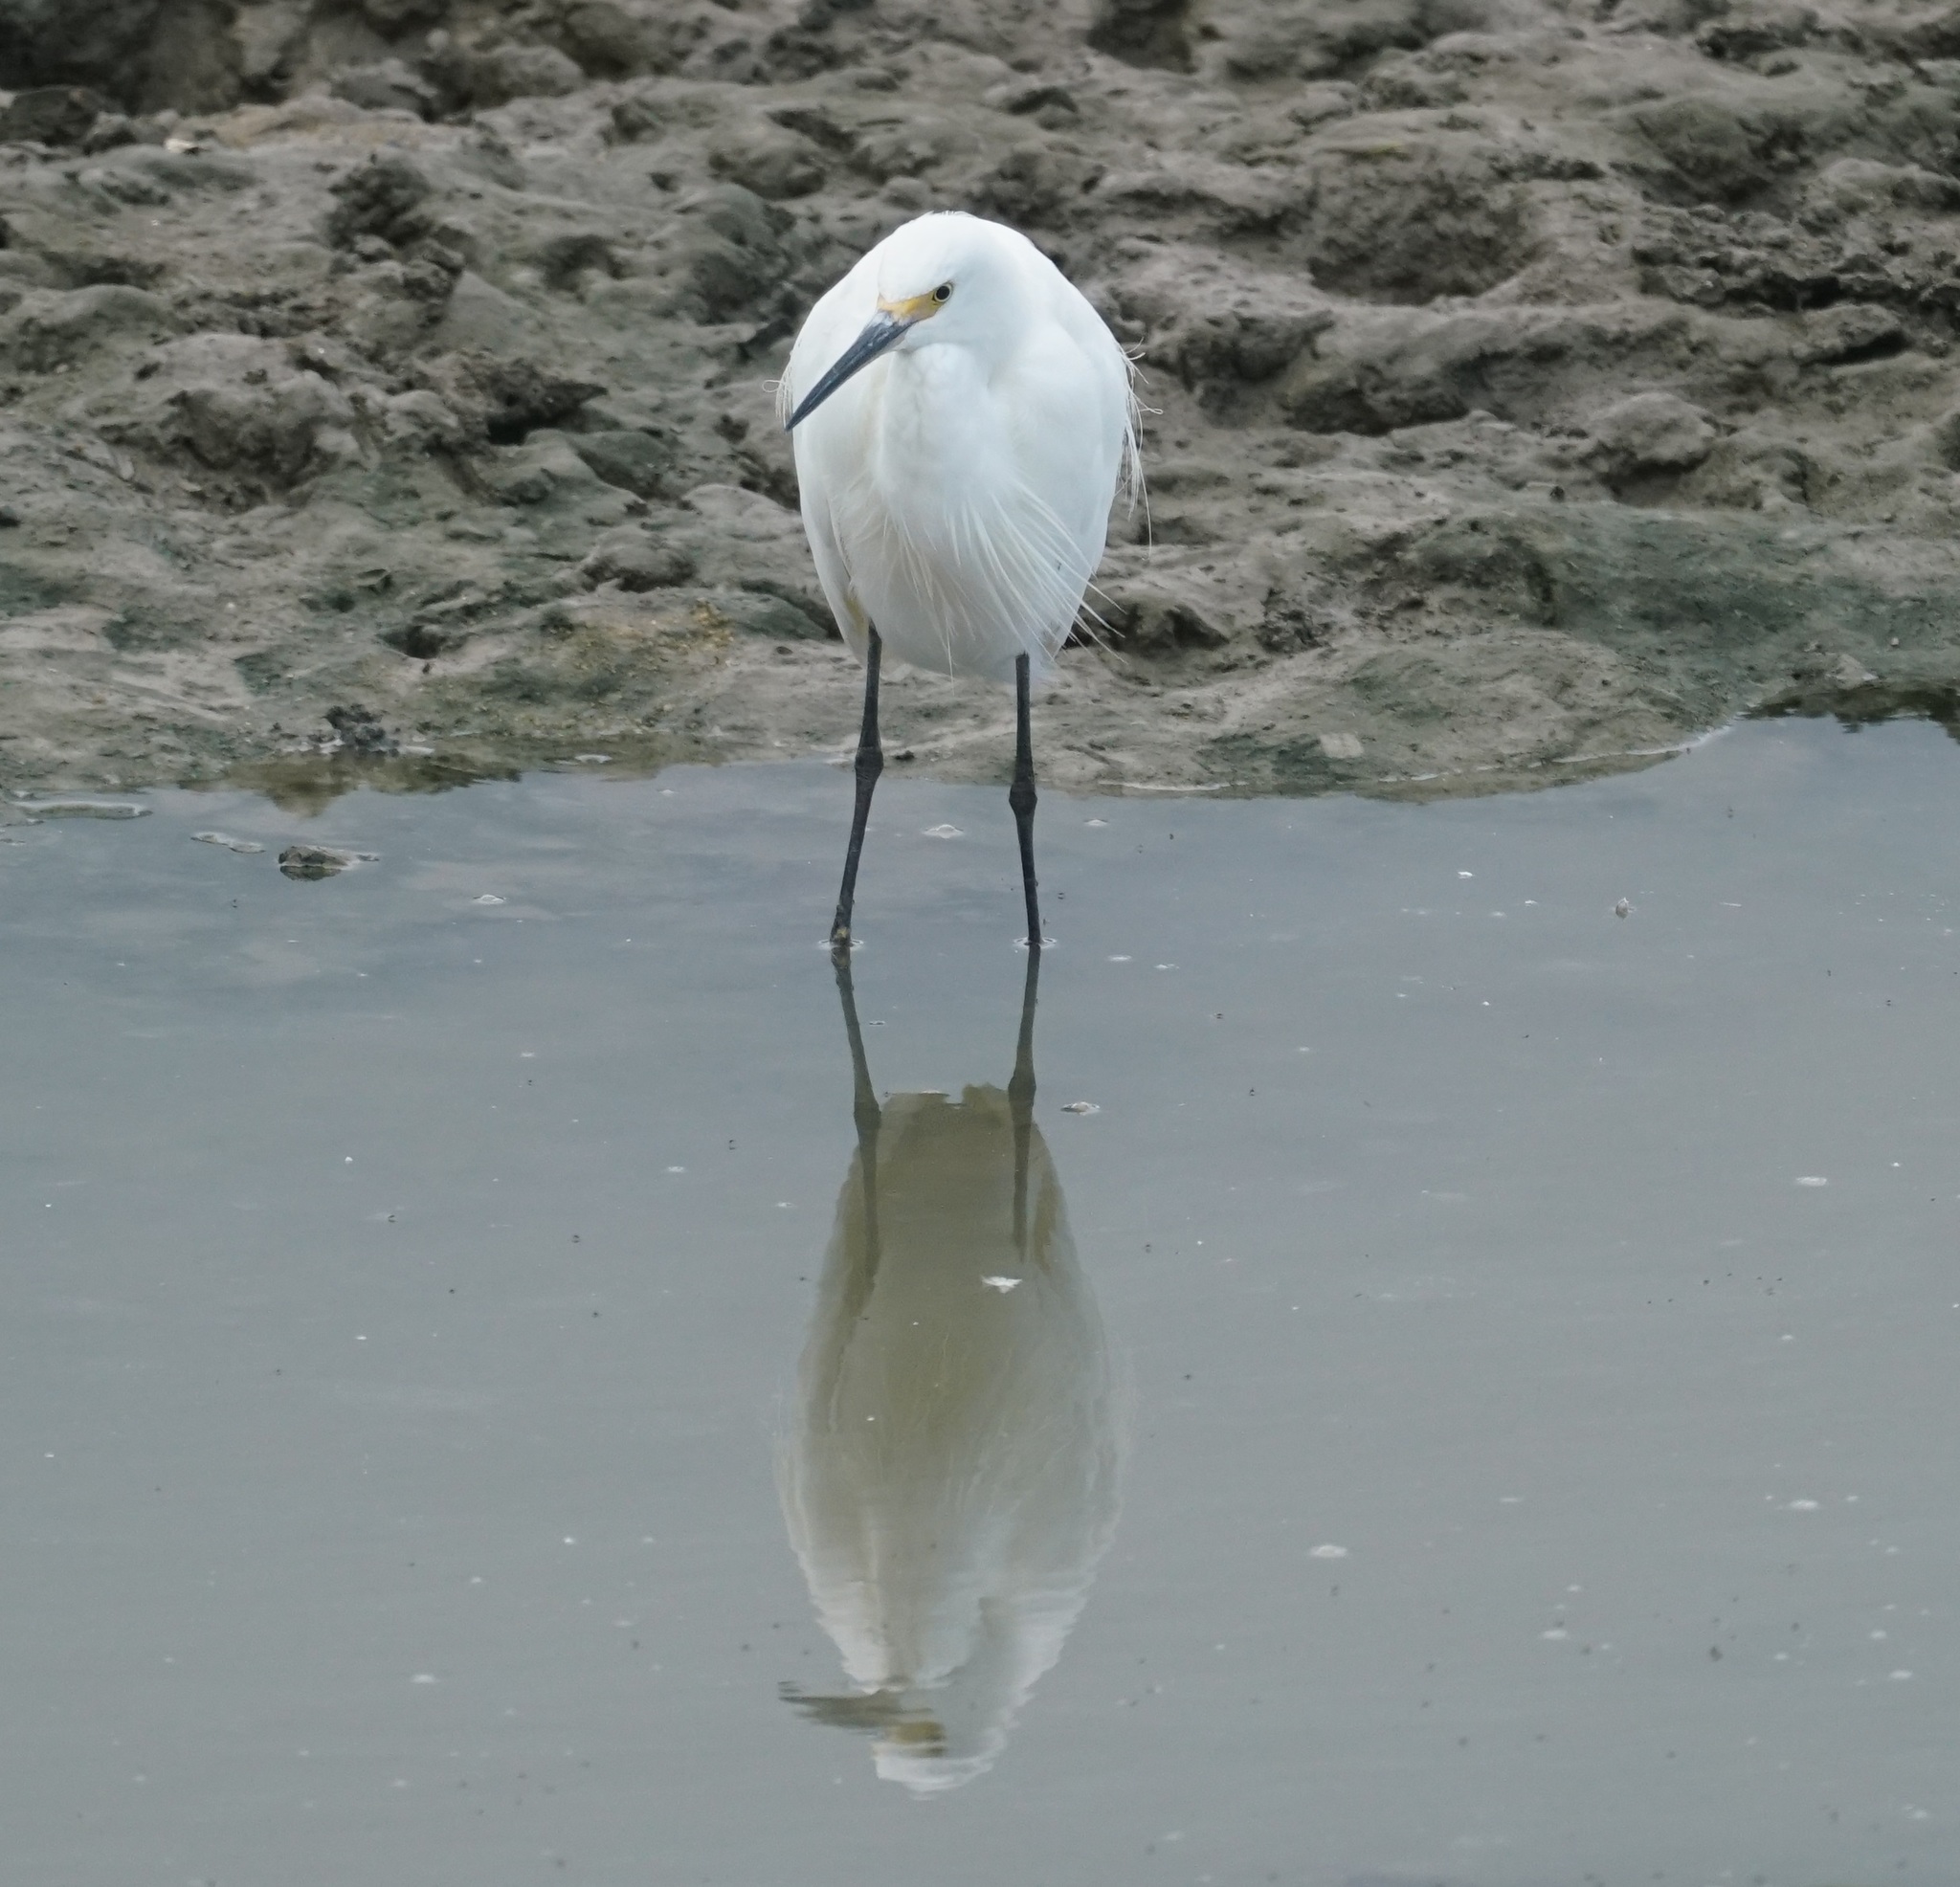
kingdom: Animalia
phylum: Chordata
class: Aves
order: Pelecaniformes
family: Ardeidae
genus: Egretta
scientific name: Egretta garzetta
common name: Little egret
